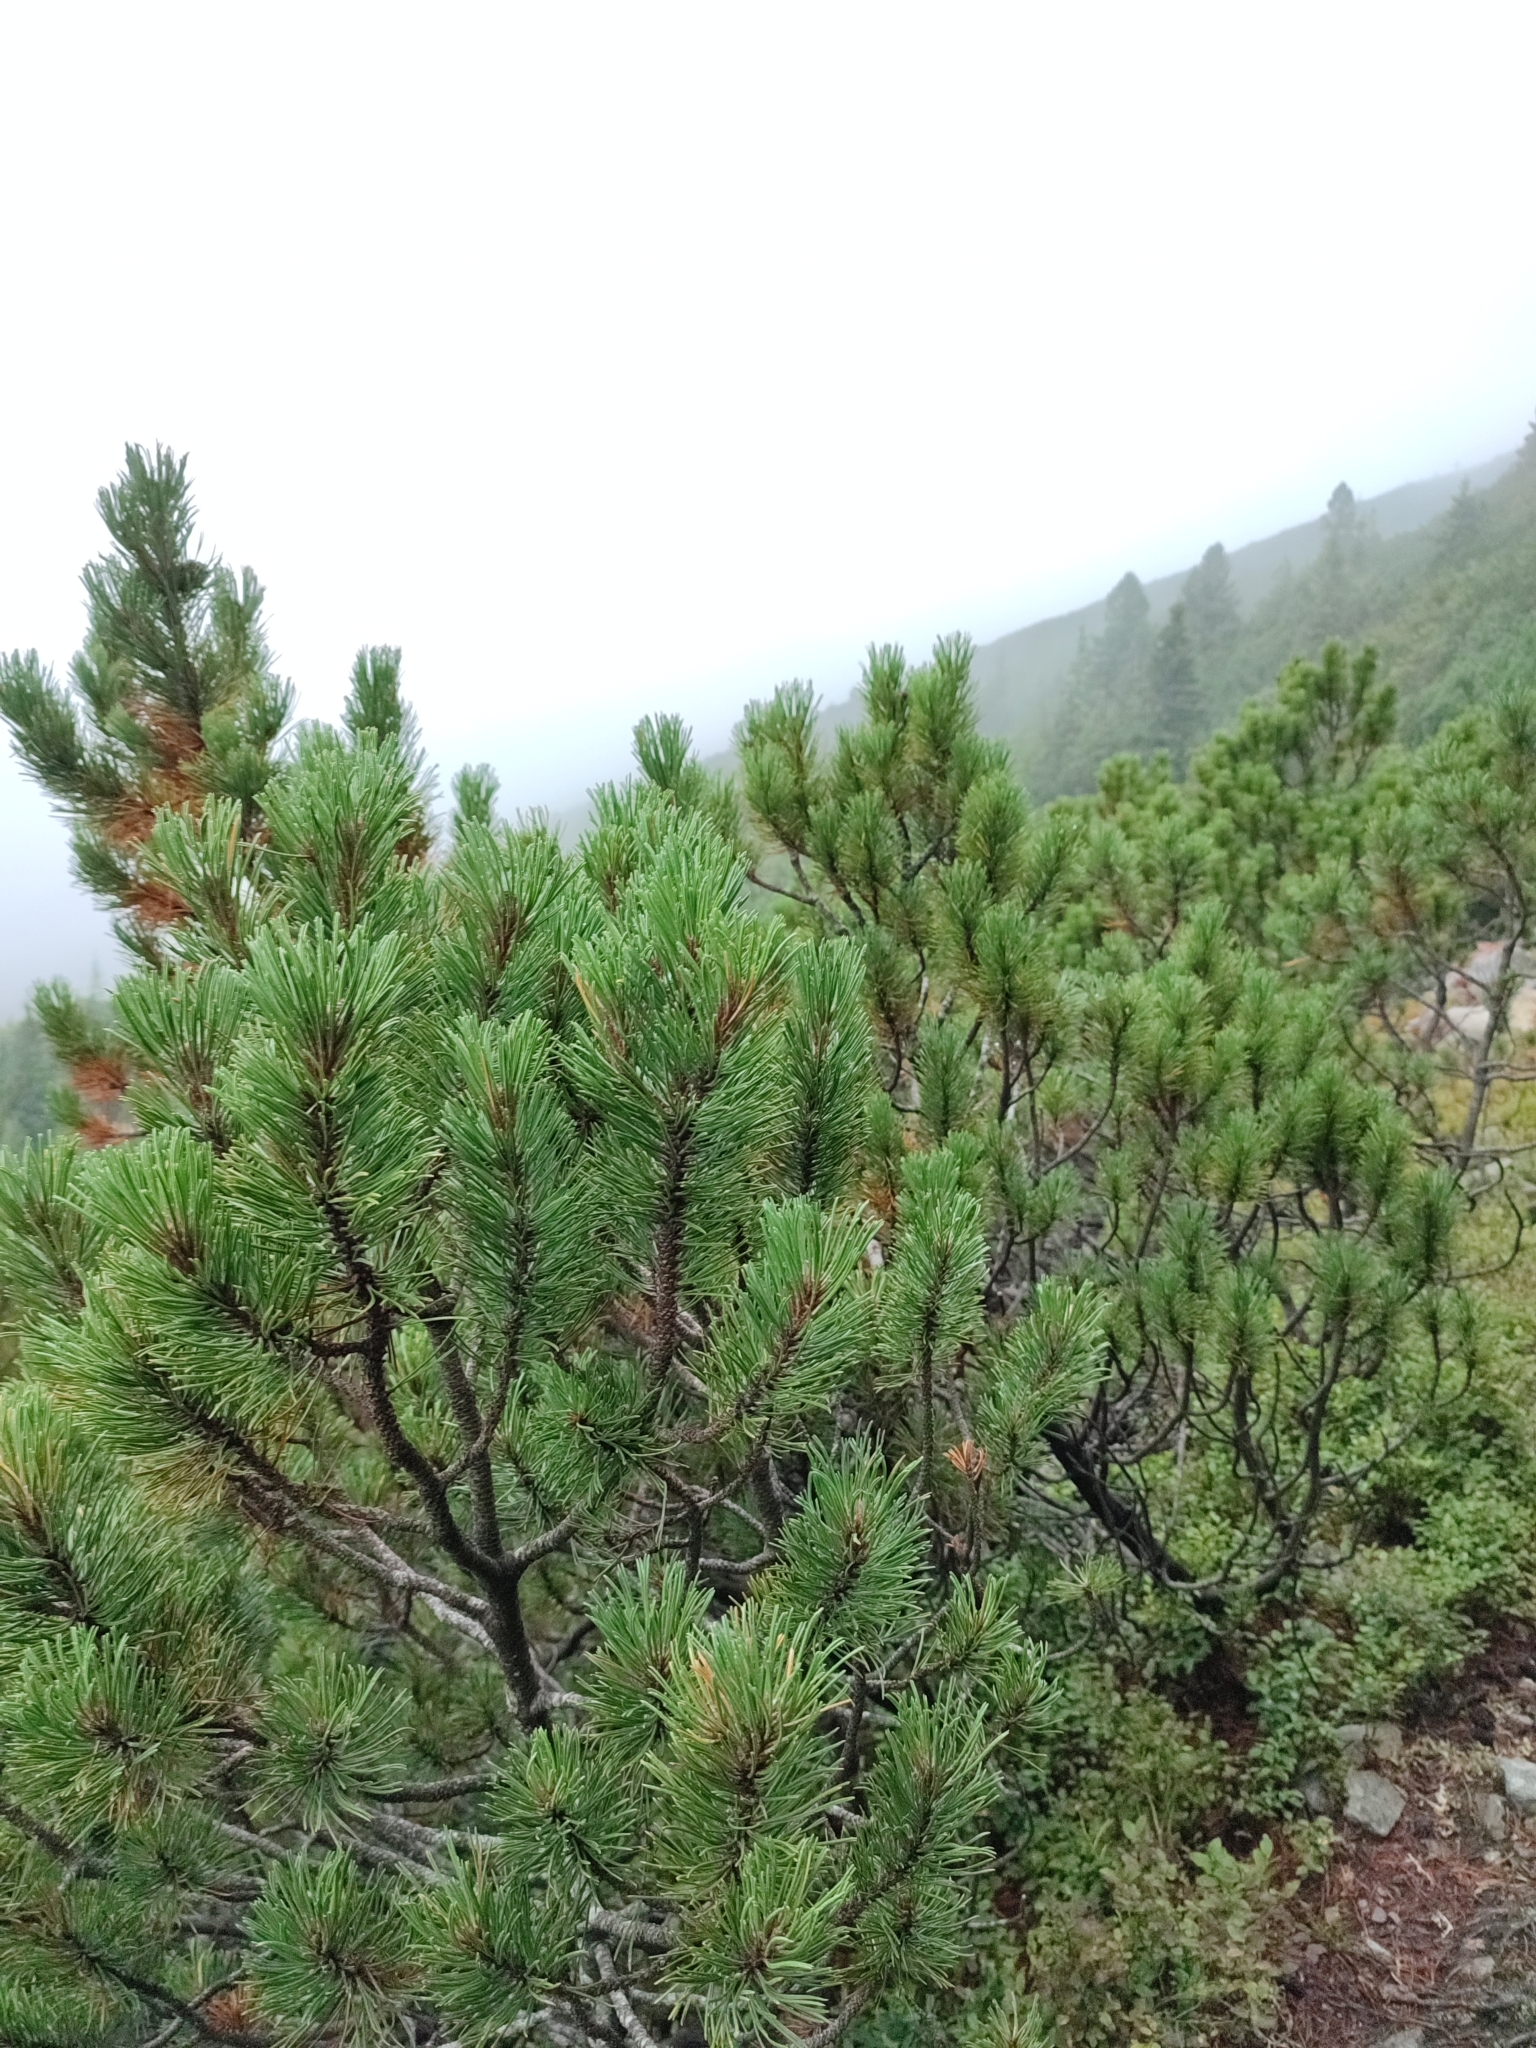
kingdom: Plantae
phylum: Tracheophyta
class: Pinopsida
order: Pinales
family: Pinaceae
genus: Pinus
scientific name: Pinus mugo
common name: Mugo pine
